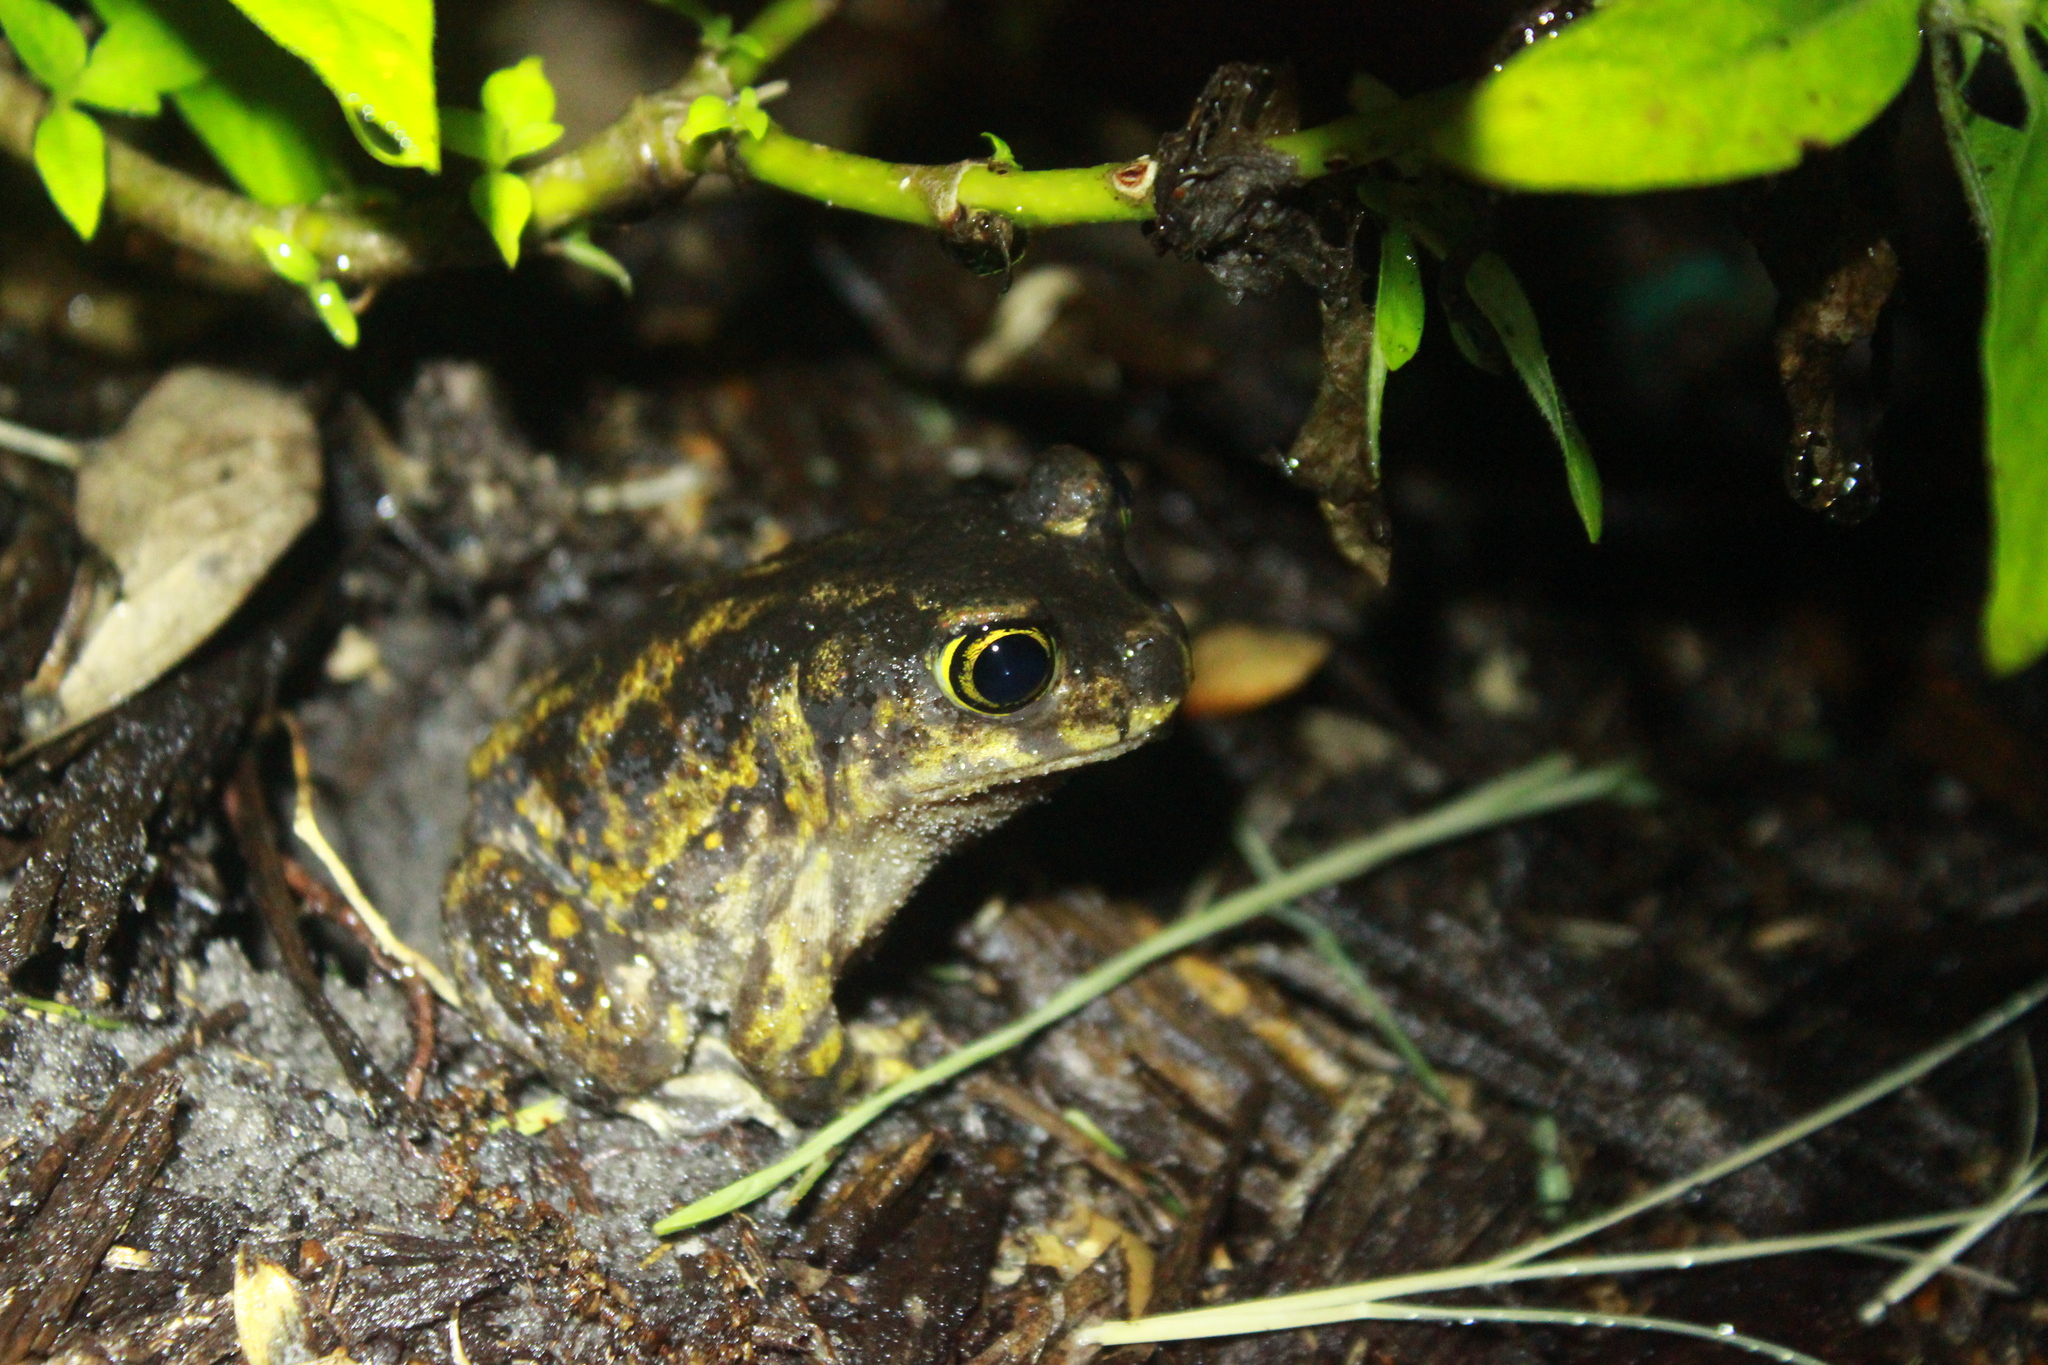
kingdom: Animalia
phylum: Chordata
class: Amphibia
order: Anura
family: Scaphiopodidae
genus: Scaphiopus
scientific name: Scaphiopus holbrookii
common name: Eastern spadefoot toad
